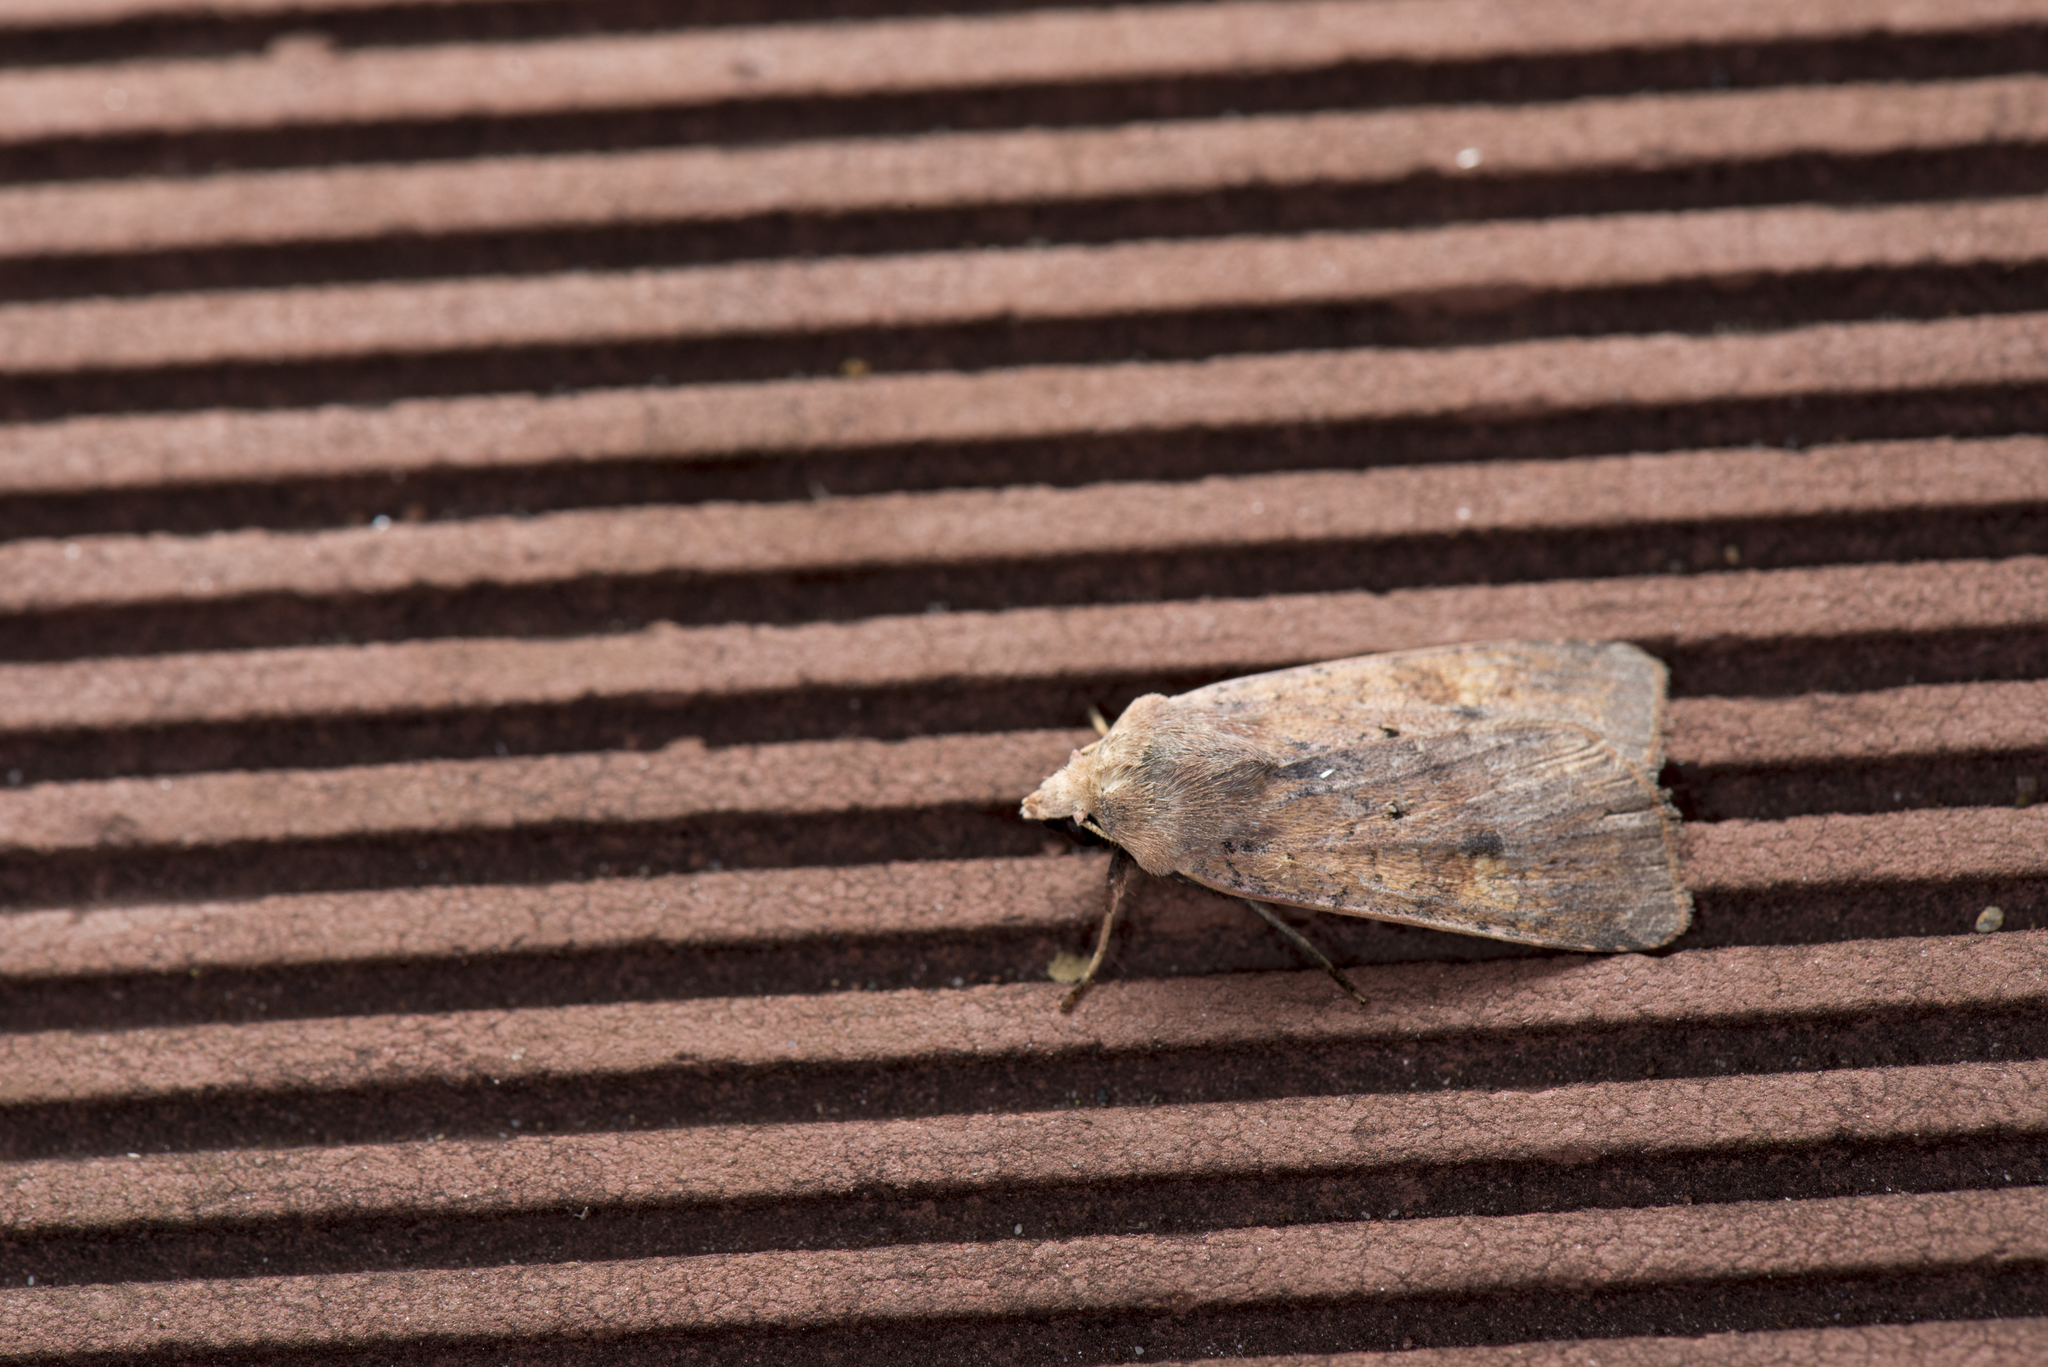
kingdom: Animalia
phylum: Arthropoda
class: Insecta
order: Lepidoptera
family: Noctuidae
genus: Diarsia
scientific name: Diarsia nigrosigna
